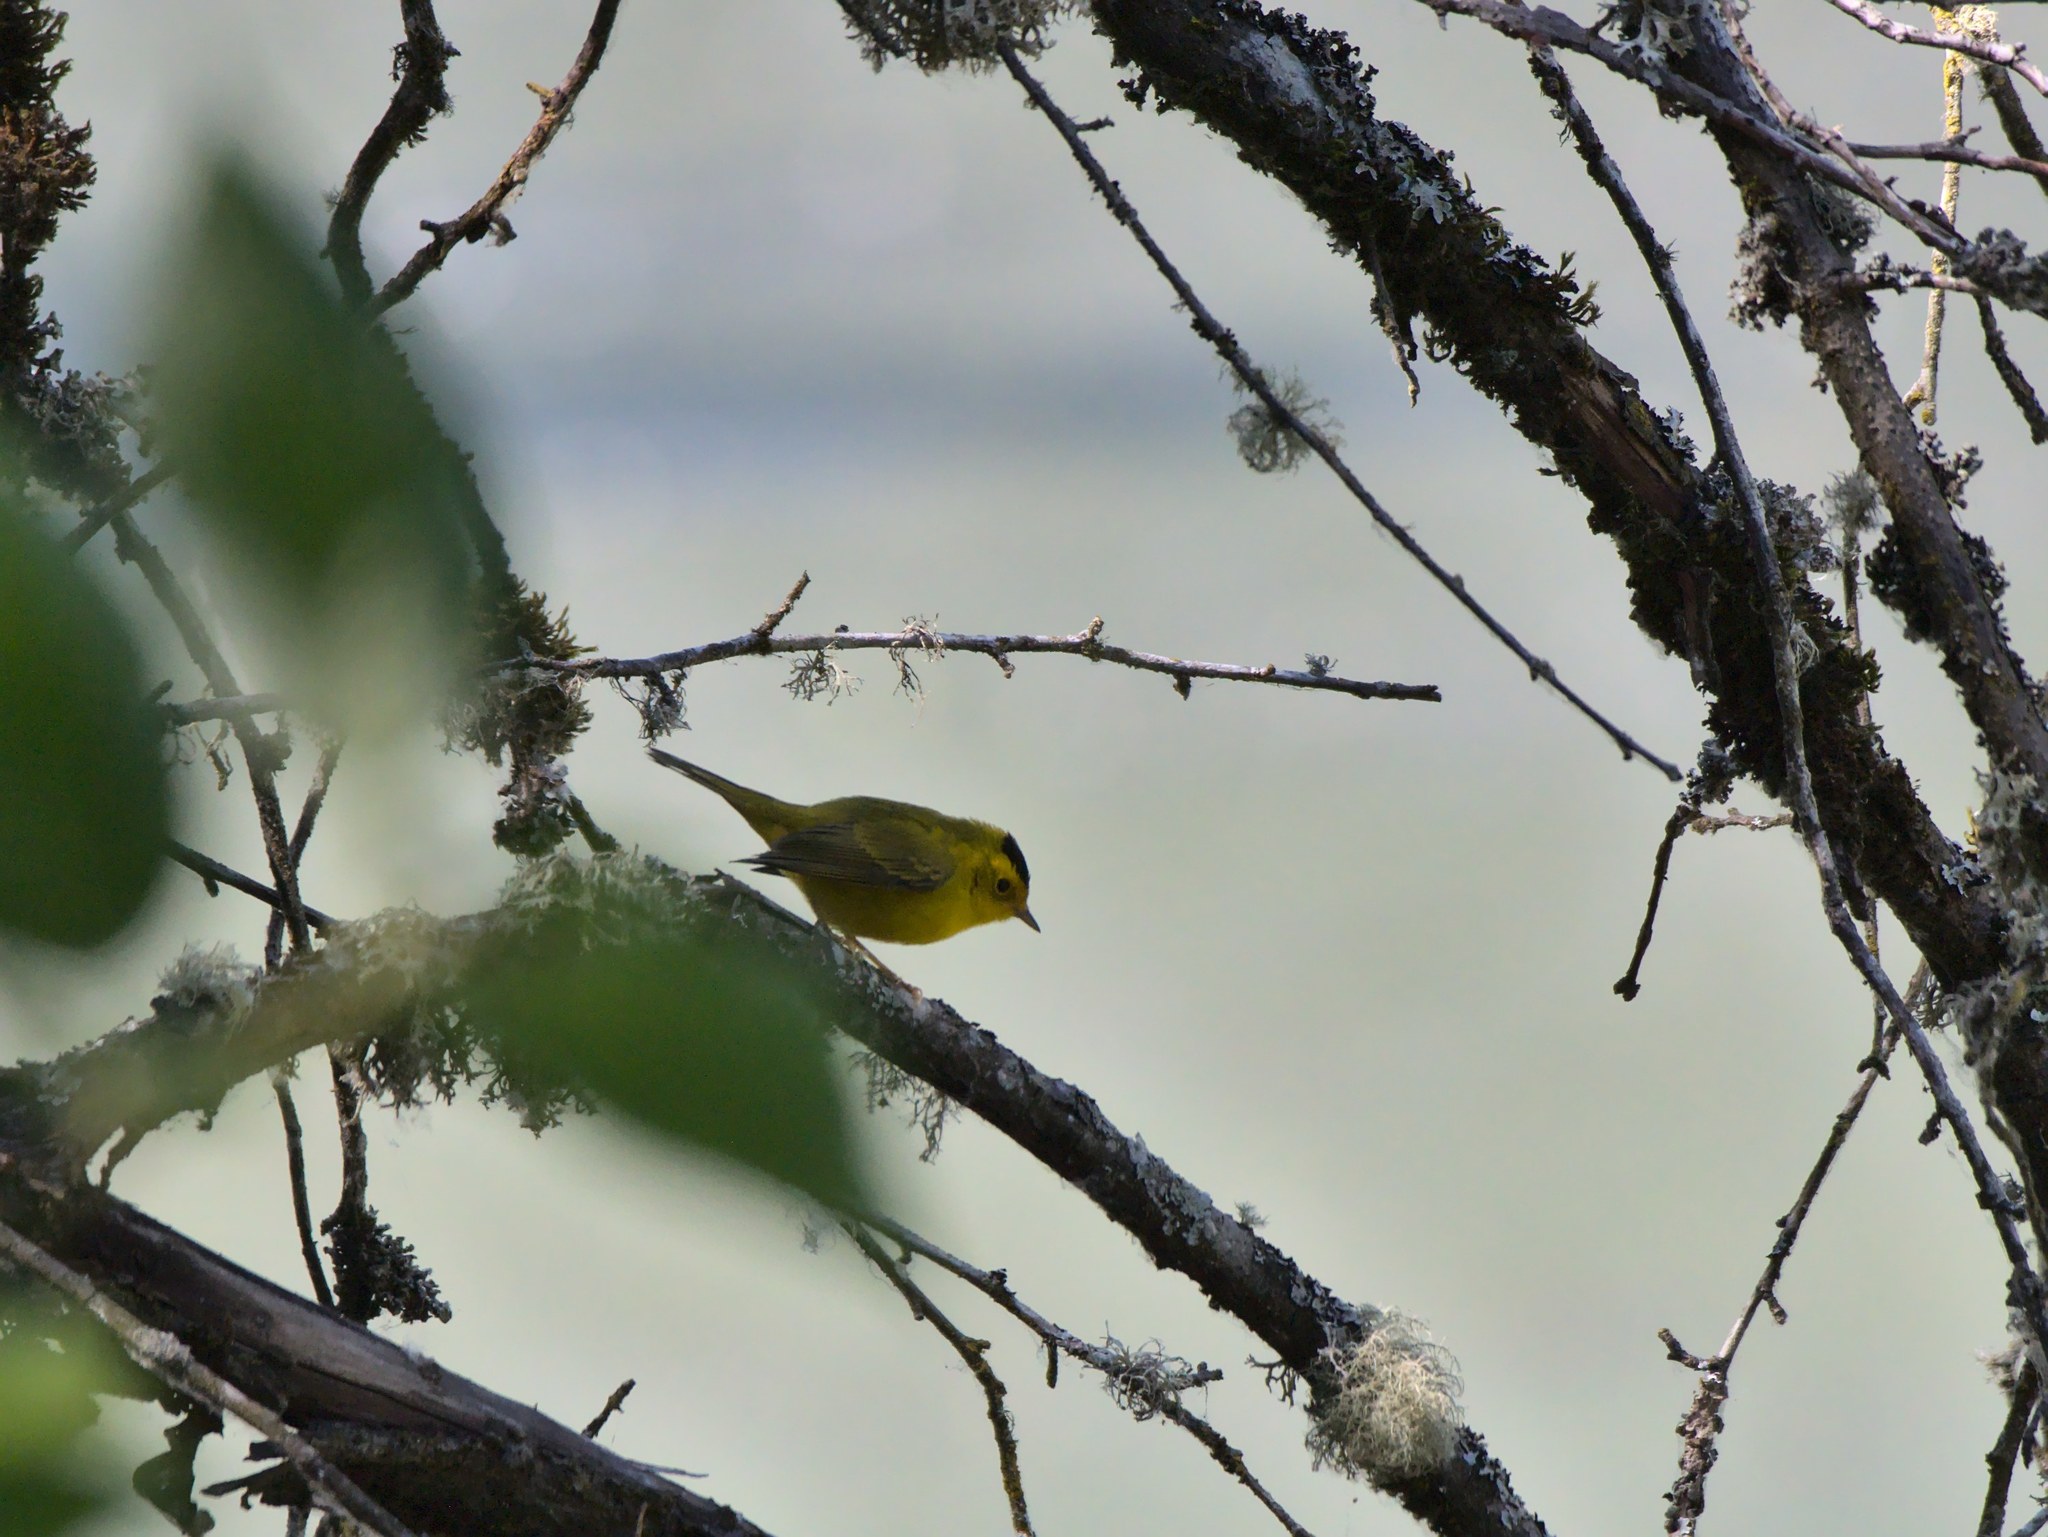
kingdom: Animalia
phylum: Chordata
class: Aves
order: Passeriformes
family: Parulidae
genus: Cardellina
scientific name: Cardellina pusilla
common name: Wilson's warbler
